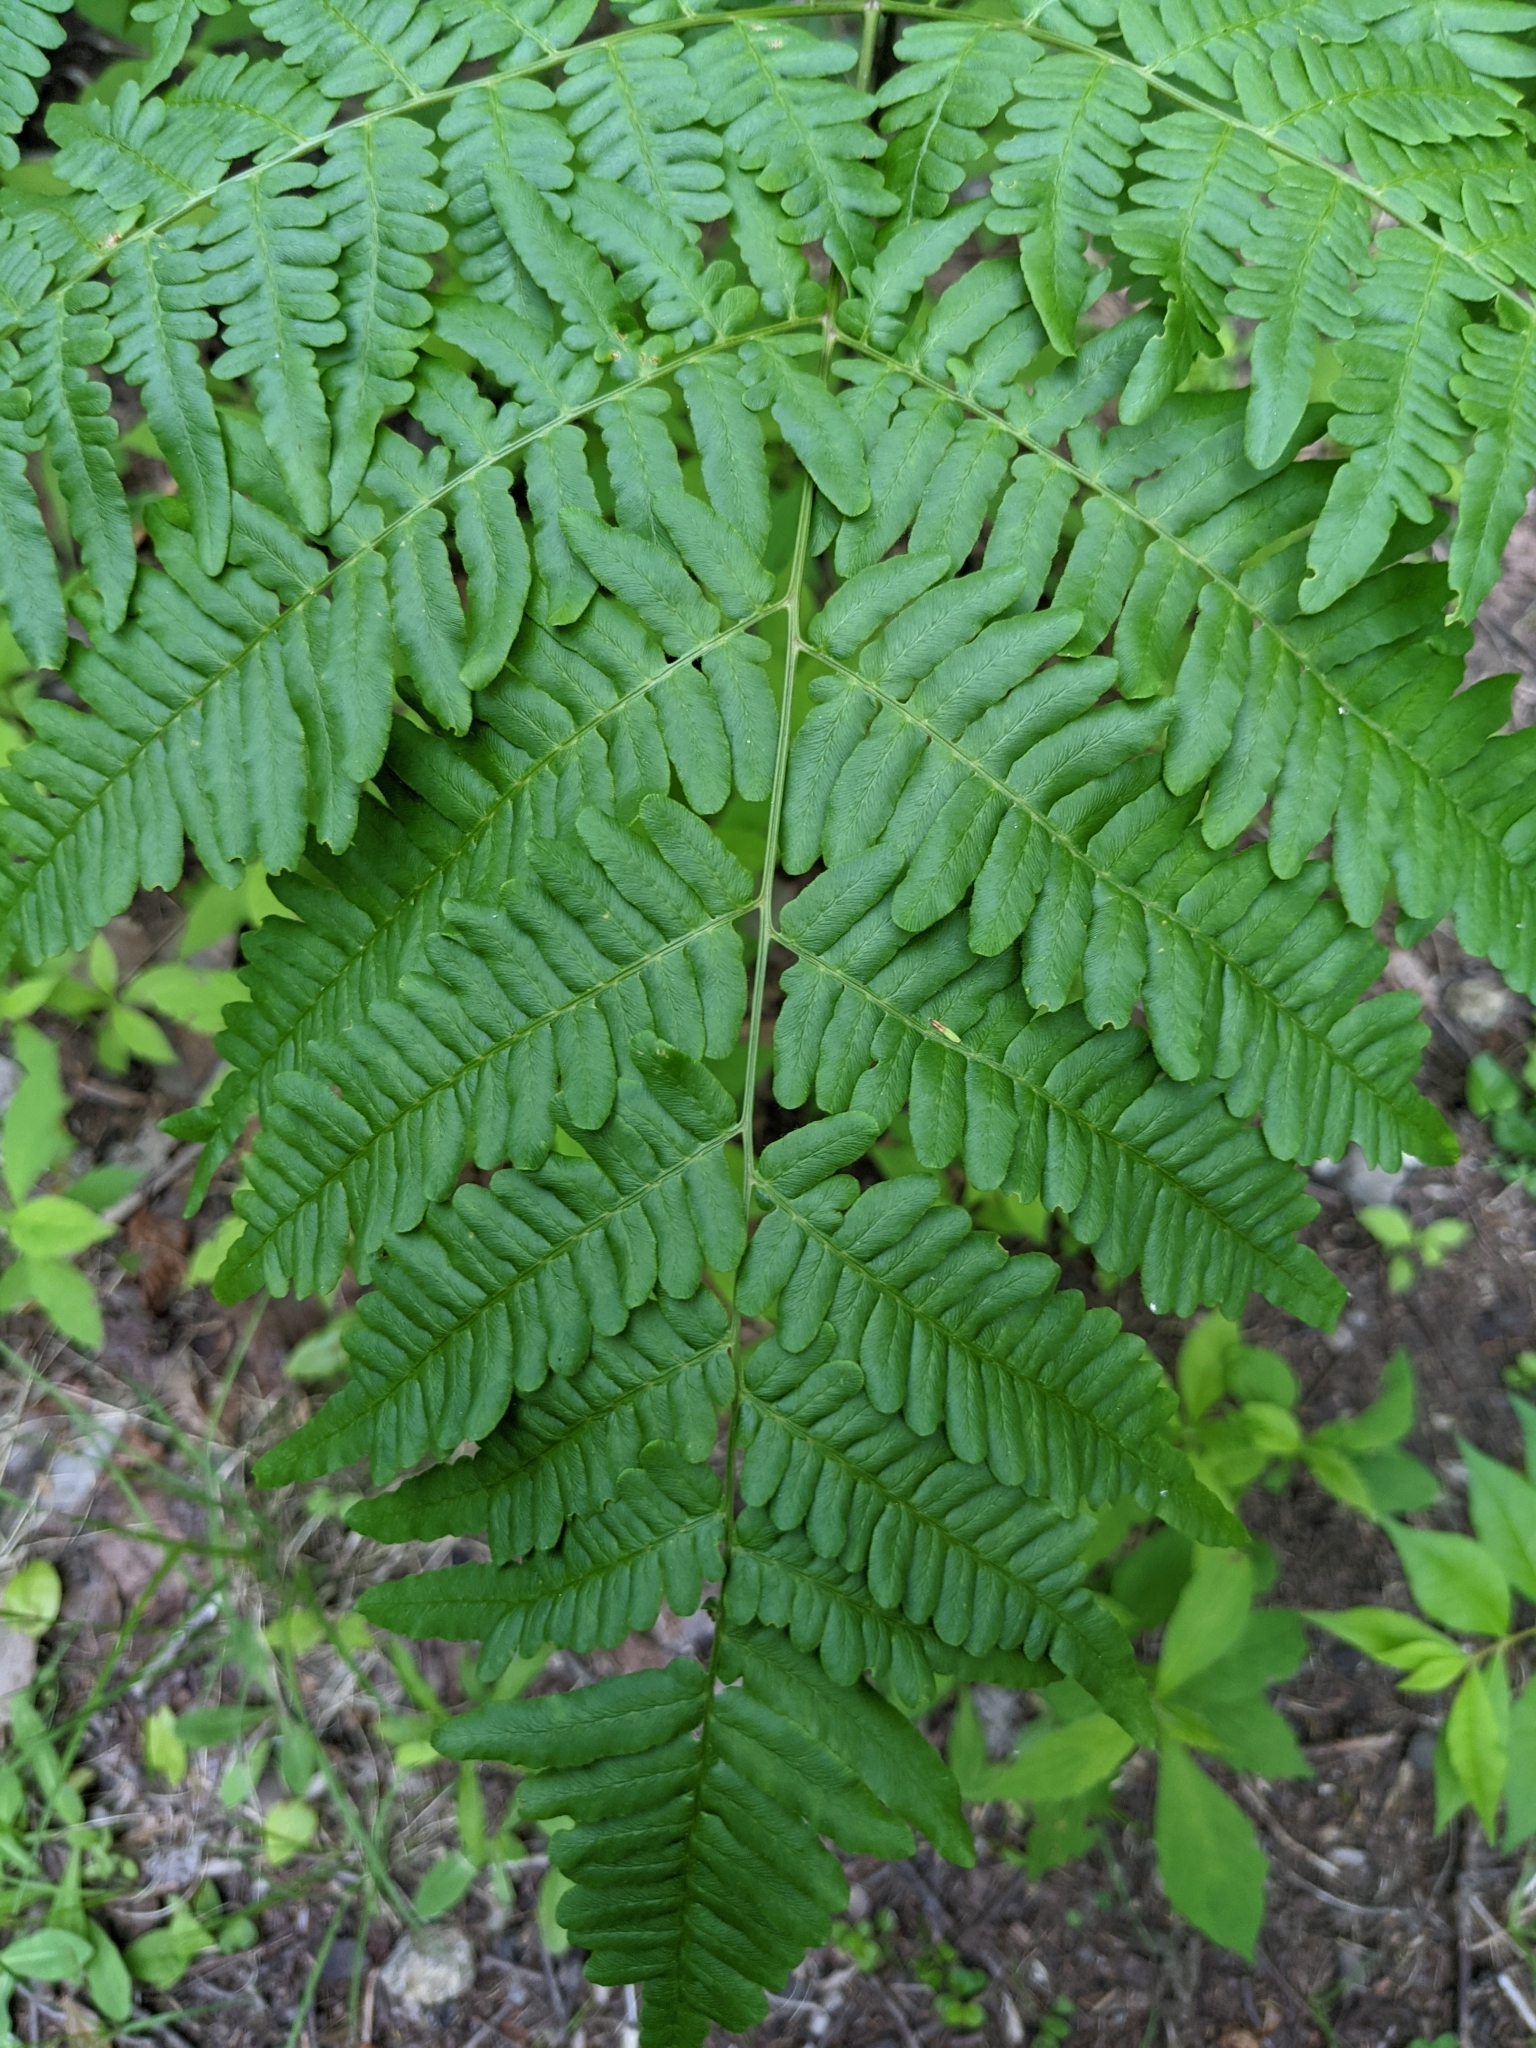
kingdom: Plantae
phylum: Tracheophyta
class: Polypodiopsida
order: Polypodiales
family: Dennstaedtiaceae
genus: Pteridium
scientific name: Pteridium aquilinum
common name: Bracken
